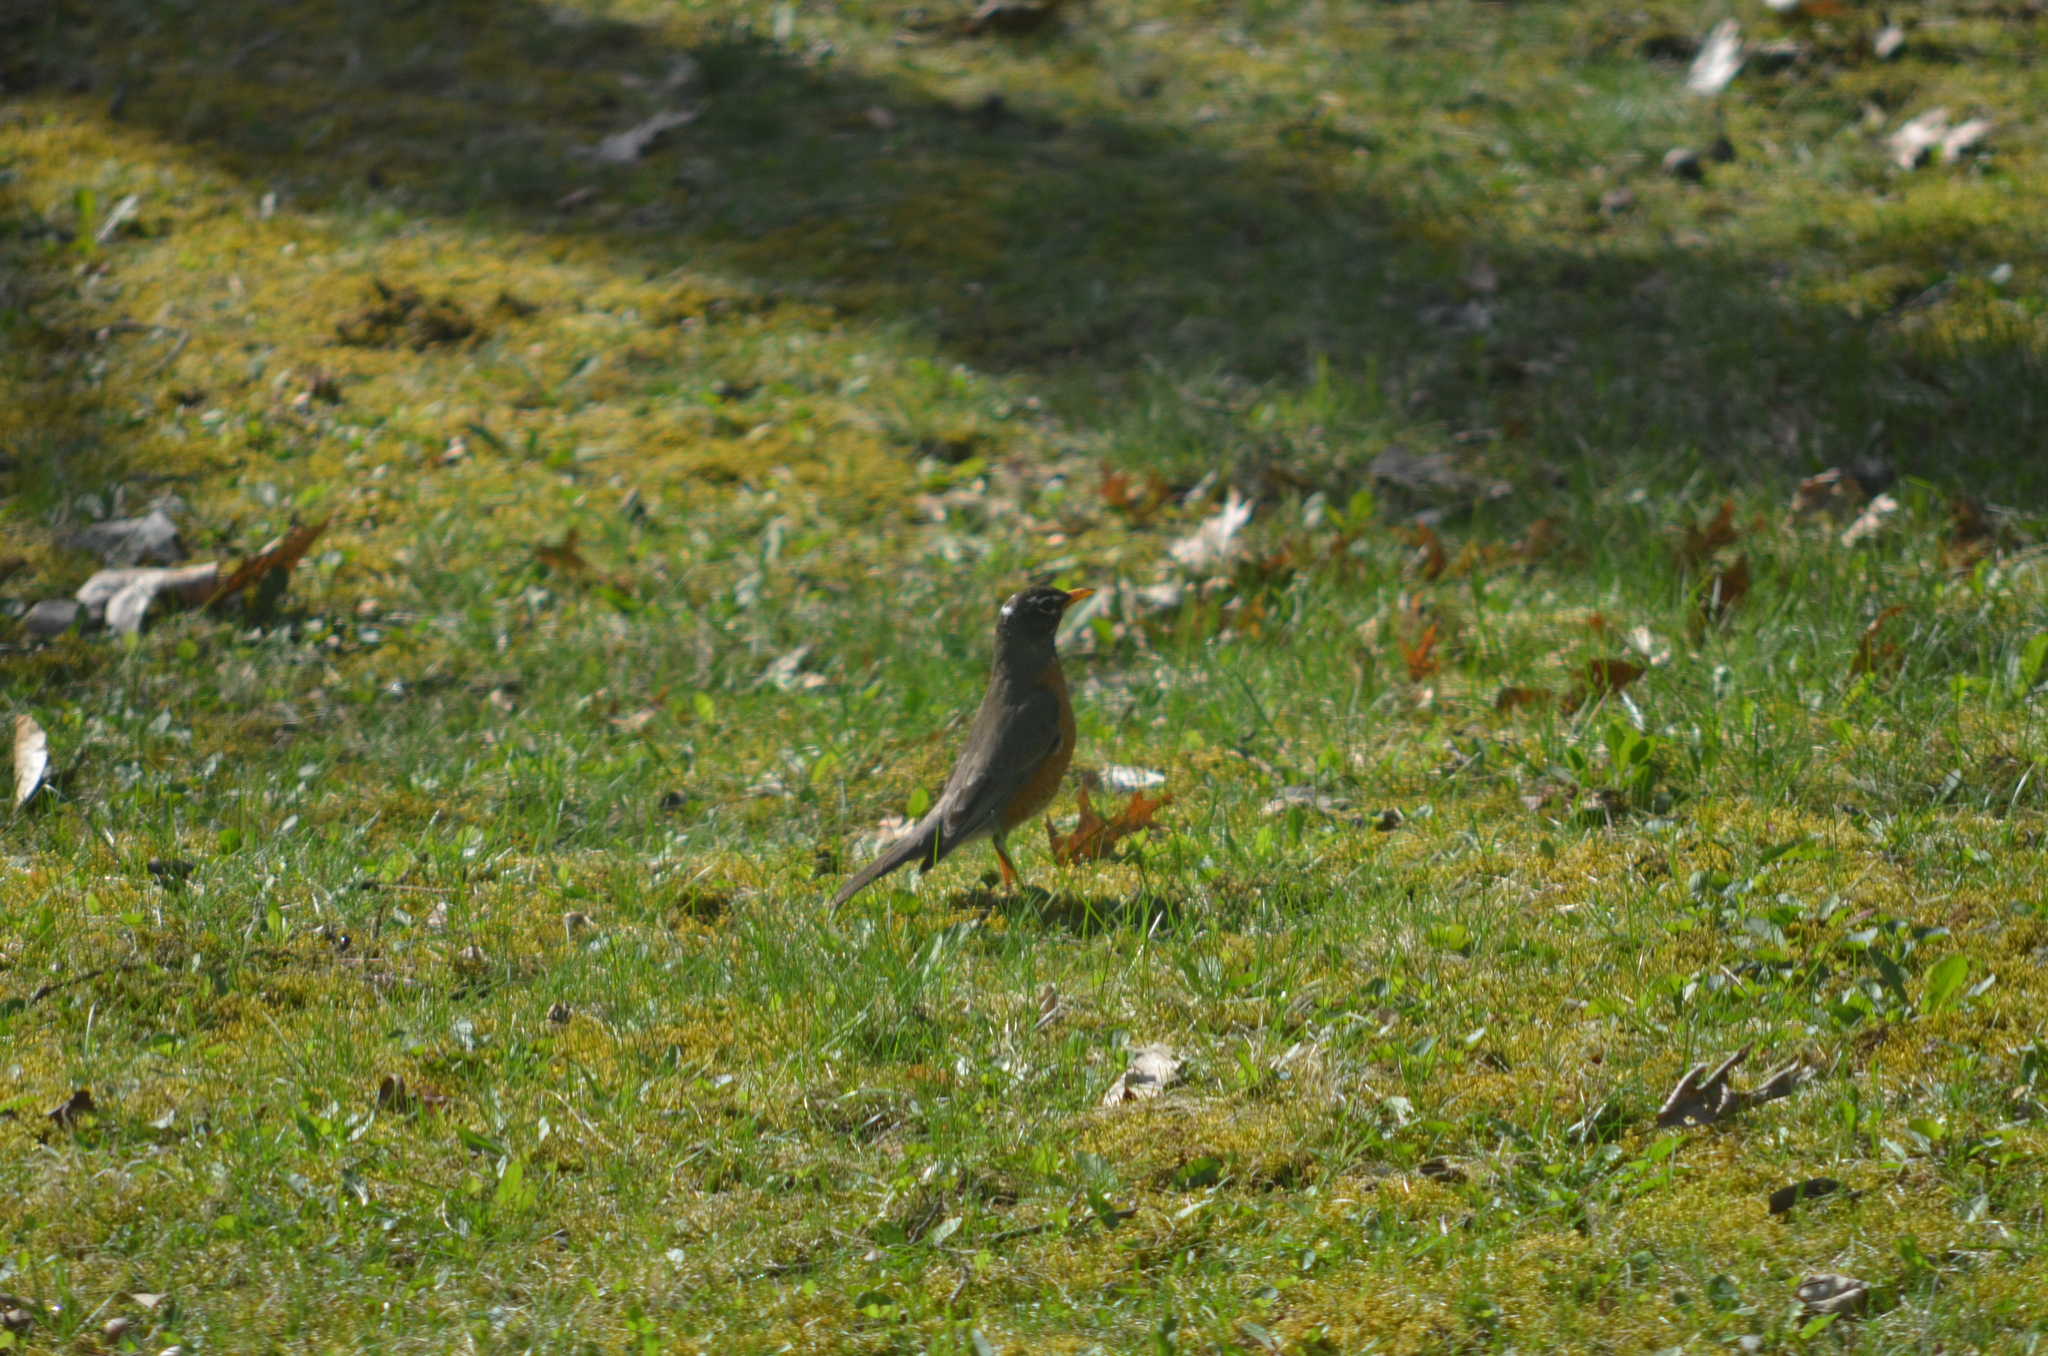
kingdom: Animalia
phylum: Chordata
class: Aves
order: Passeriformes
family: Turdidae
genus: Turdus
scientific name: Turdus migratorius
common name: American robin
